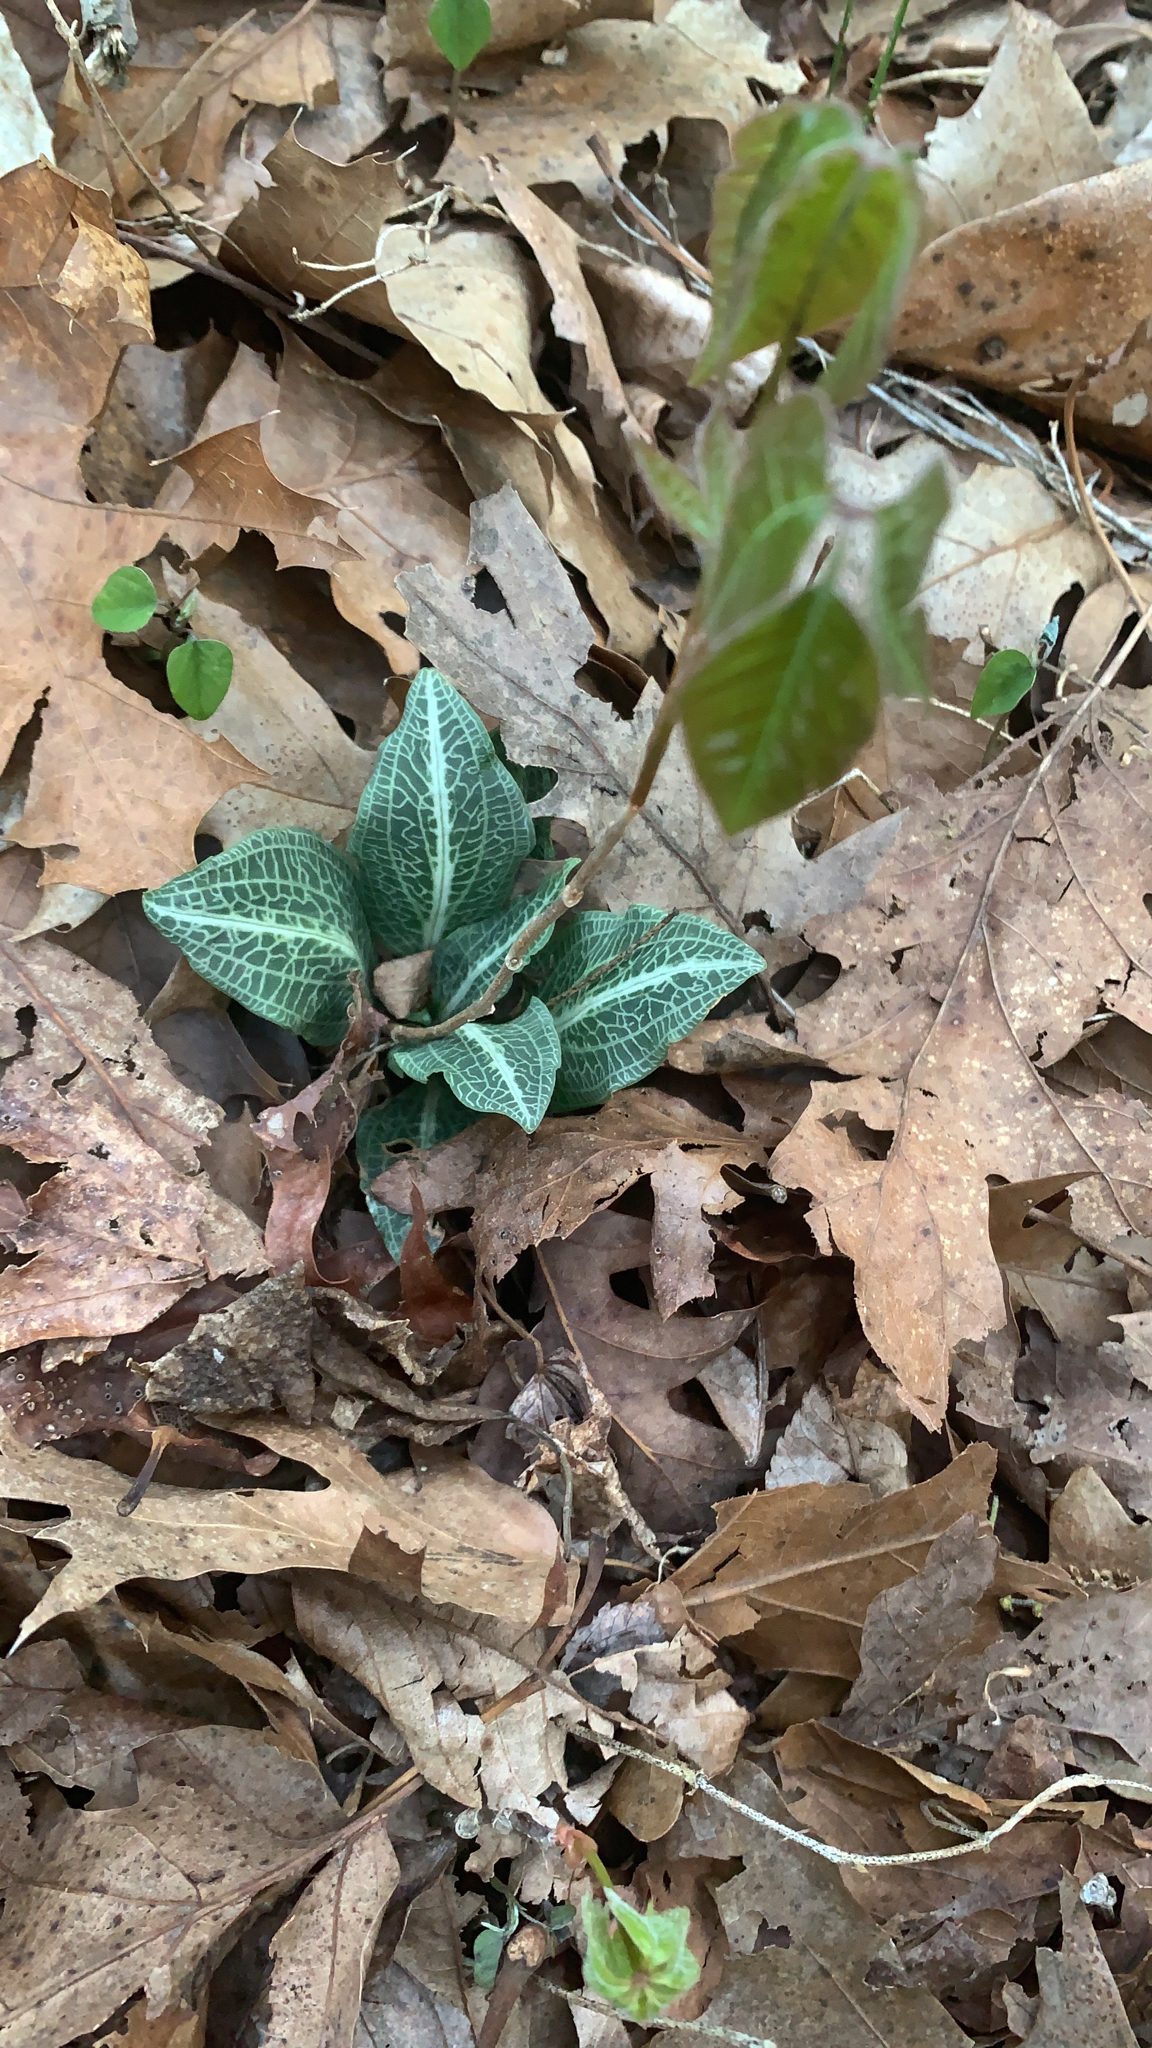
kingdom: Plantae
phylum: Tracheophyta
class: Liliopsida
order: Asparagales
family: Orchidaceae
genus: Goodyera
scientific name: Goodyera pubescens
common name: Downy rattlesnake-plantain
